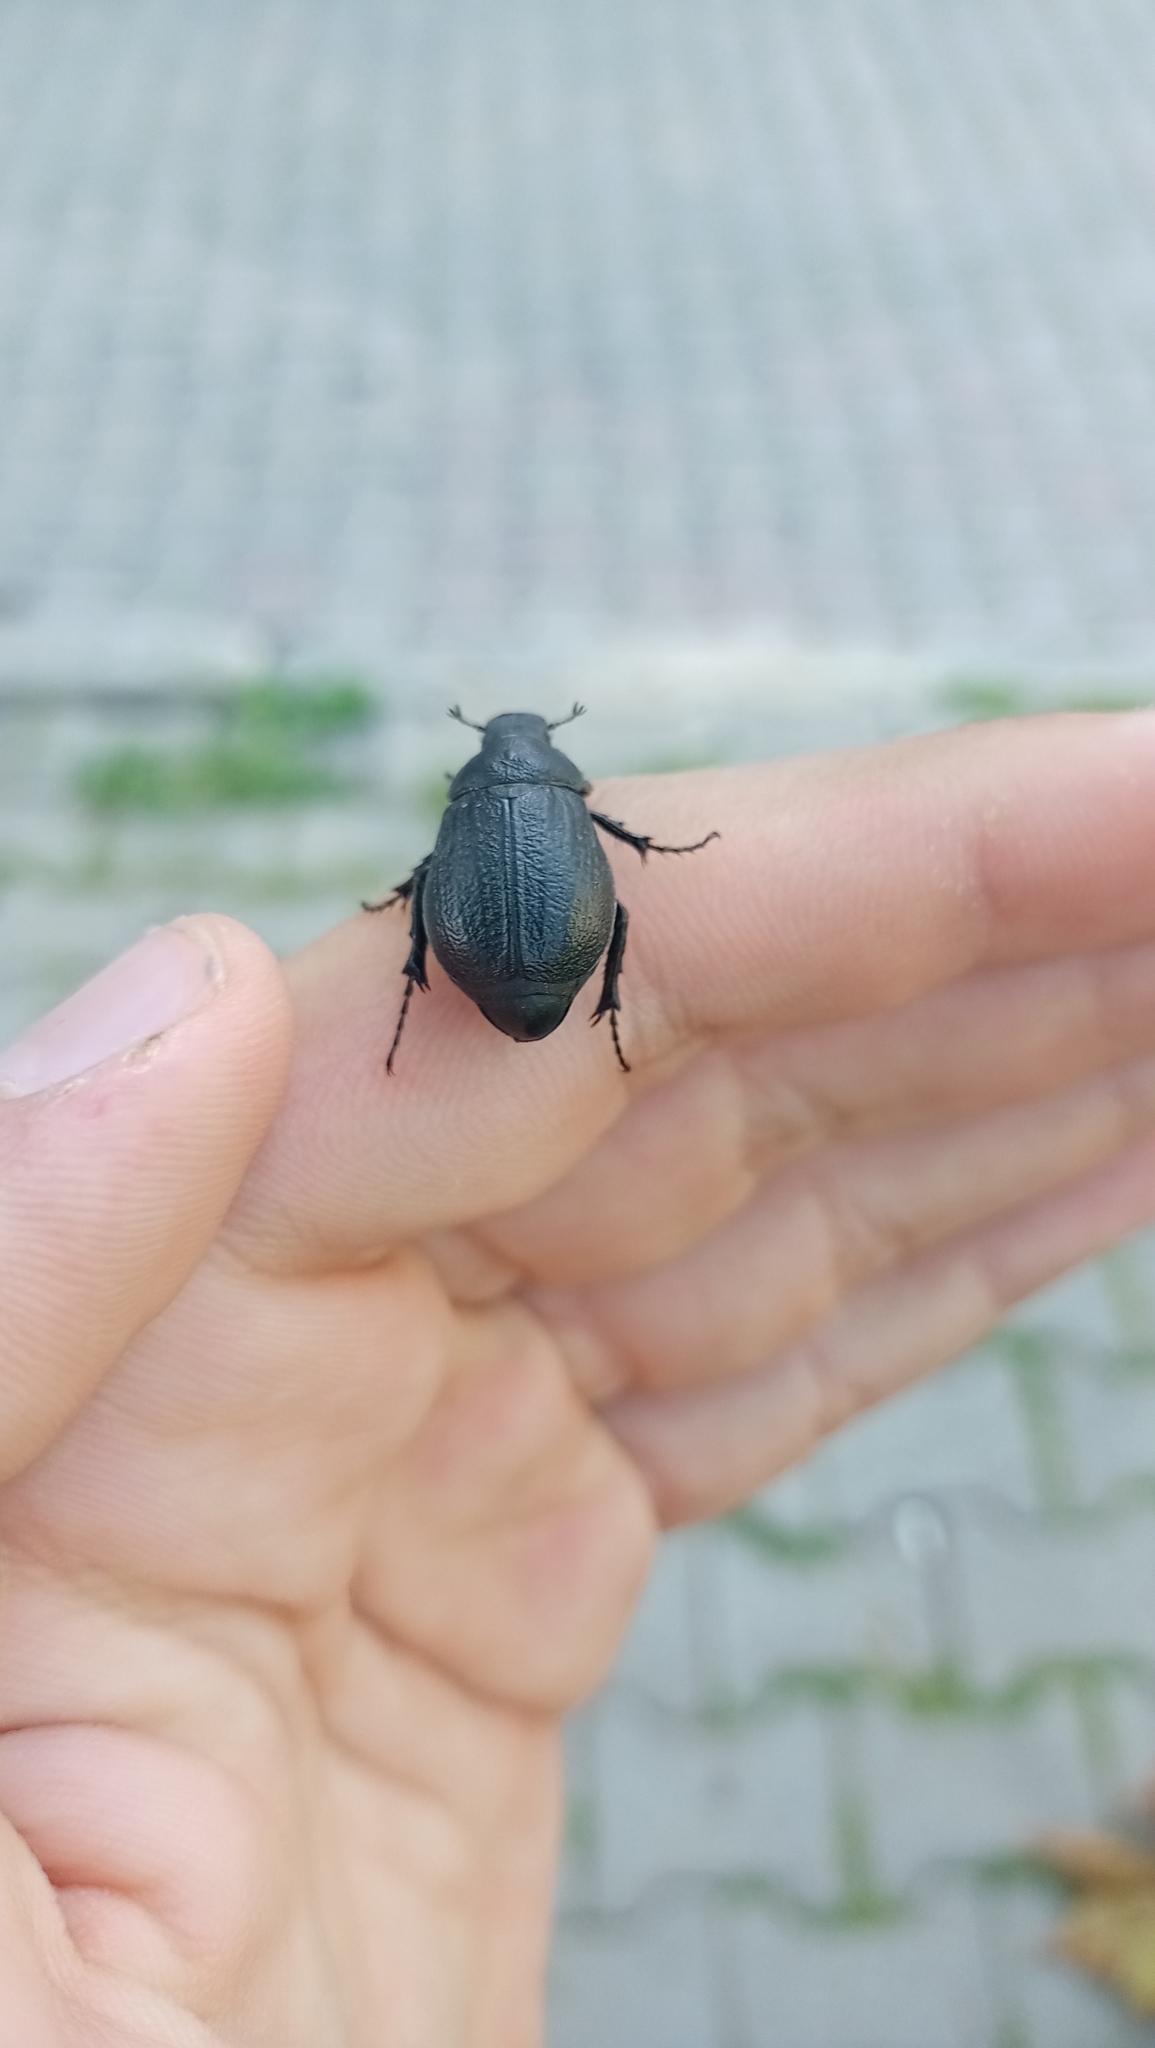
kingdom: Animalia
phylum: Arthropoda
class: Insecta
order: Coleoptera
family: Scarabaeidae
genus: Pseudotrematodes
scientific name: Pseudotrematodes frivaldszkyi
